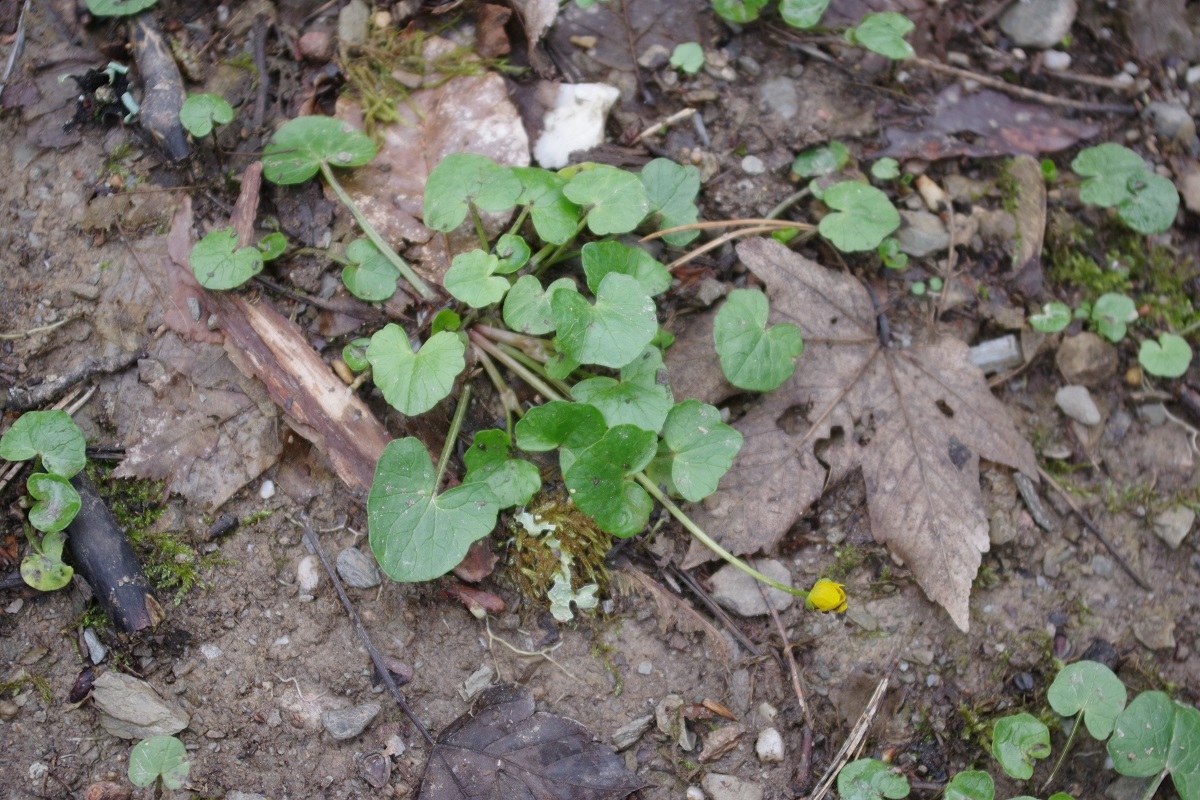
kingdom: Plantae
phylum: Tracheophyta
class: Magnoliopsida
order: Ranunculales
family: Ranunculaceae
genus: Ficaria
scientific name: Ficaria verna
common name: Lesser celandine
